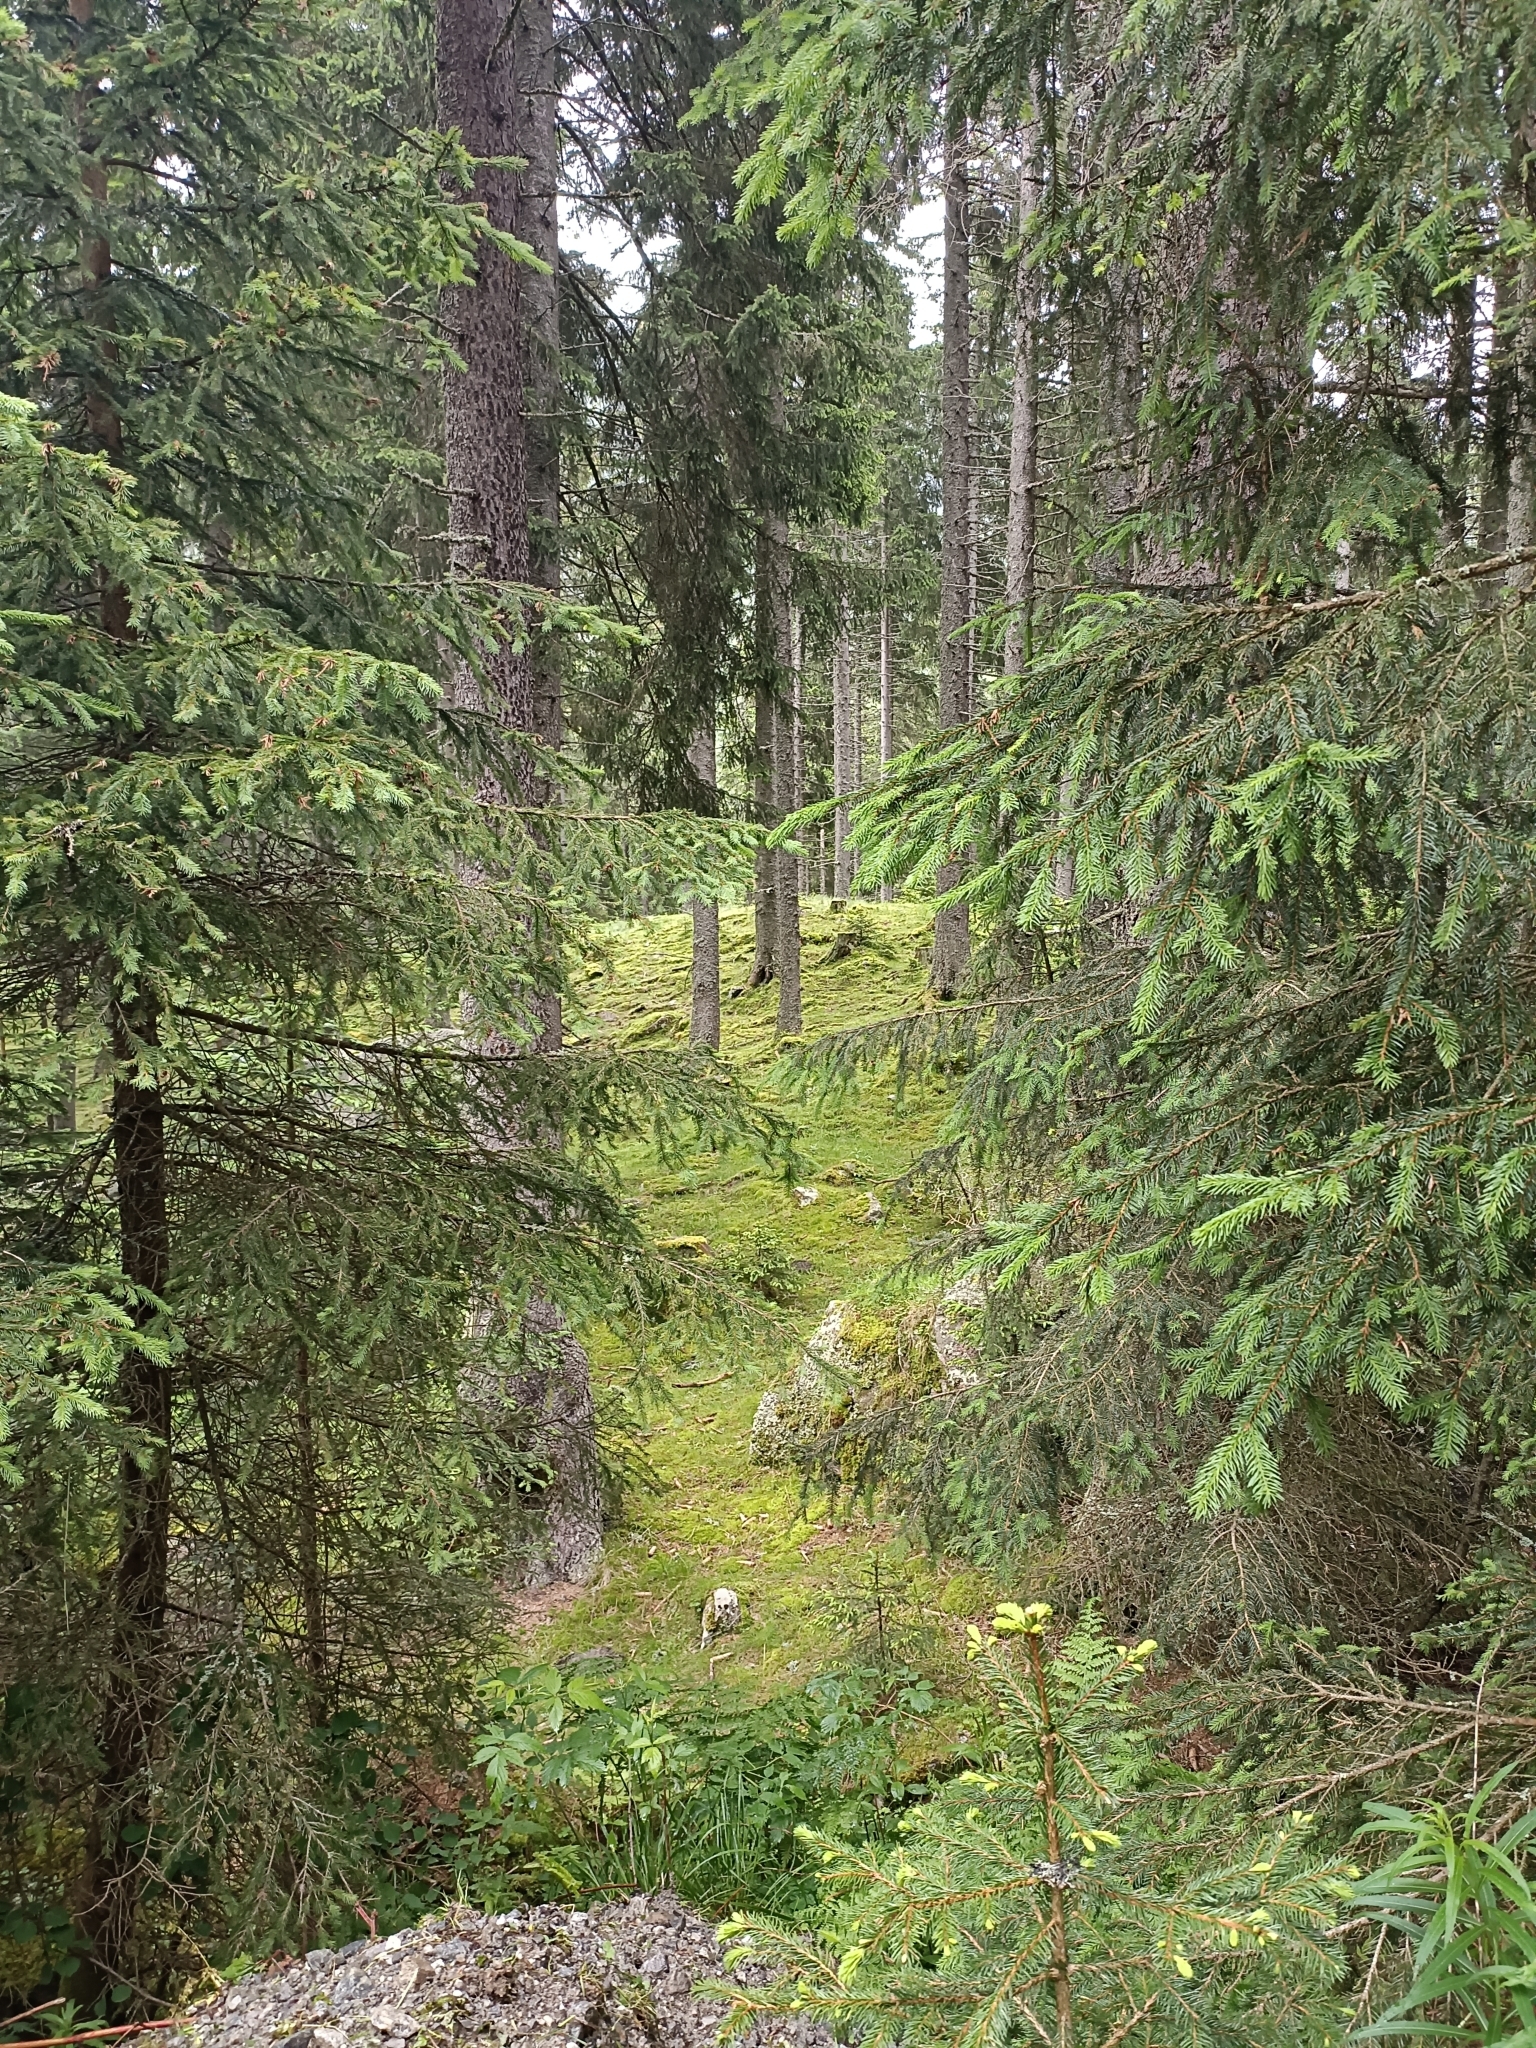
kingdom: Plantae
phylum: Tracheophyta
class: Pinopsida
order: Pinales
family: Pinaceae
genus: Picea
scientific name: Picea abies
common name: Norway spruce
